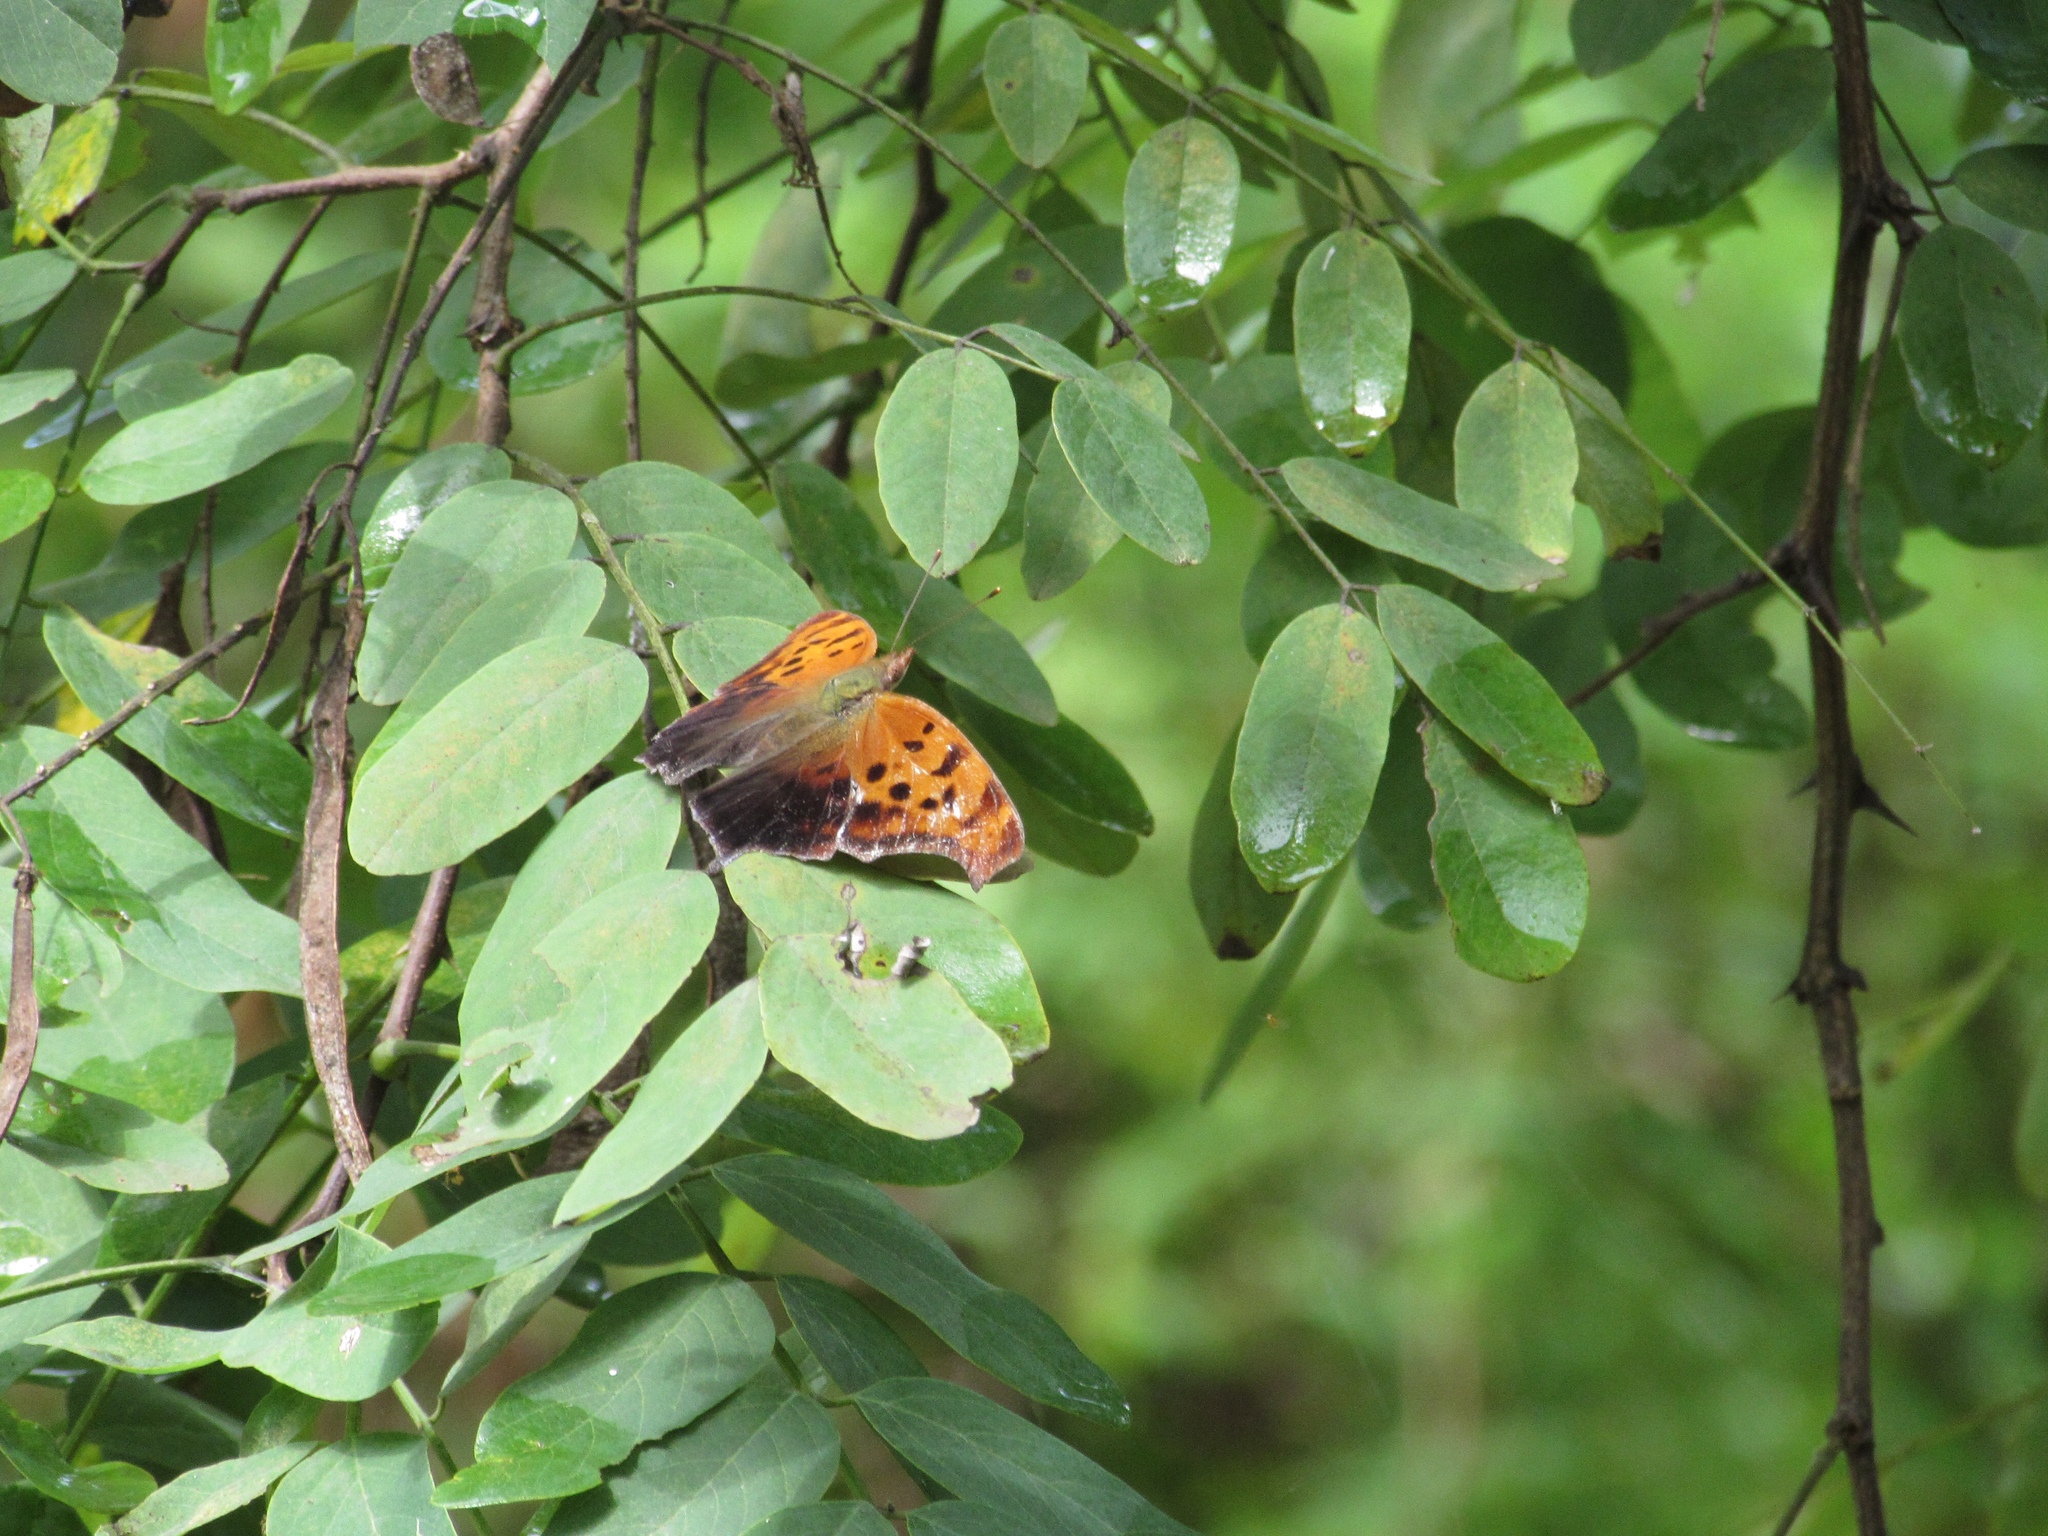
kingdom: Animalia
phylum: Arthropoda
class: Insecta
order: Lepidoptera
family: Nymphalidae
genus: Polygonia
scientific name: Polygonia interrogationis
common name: Question mark
